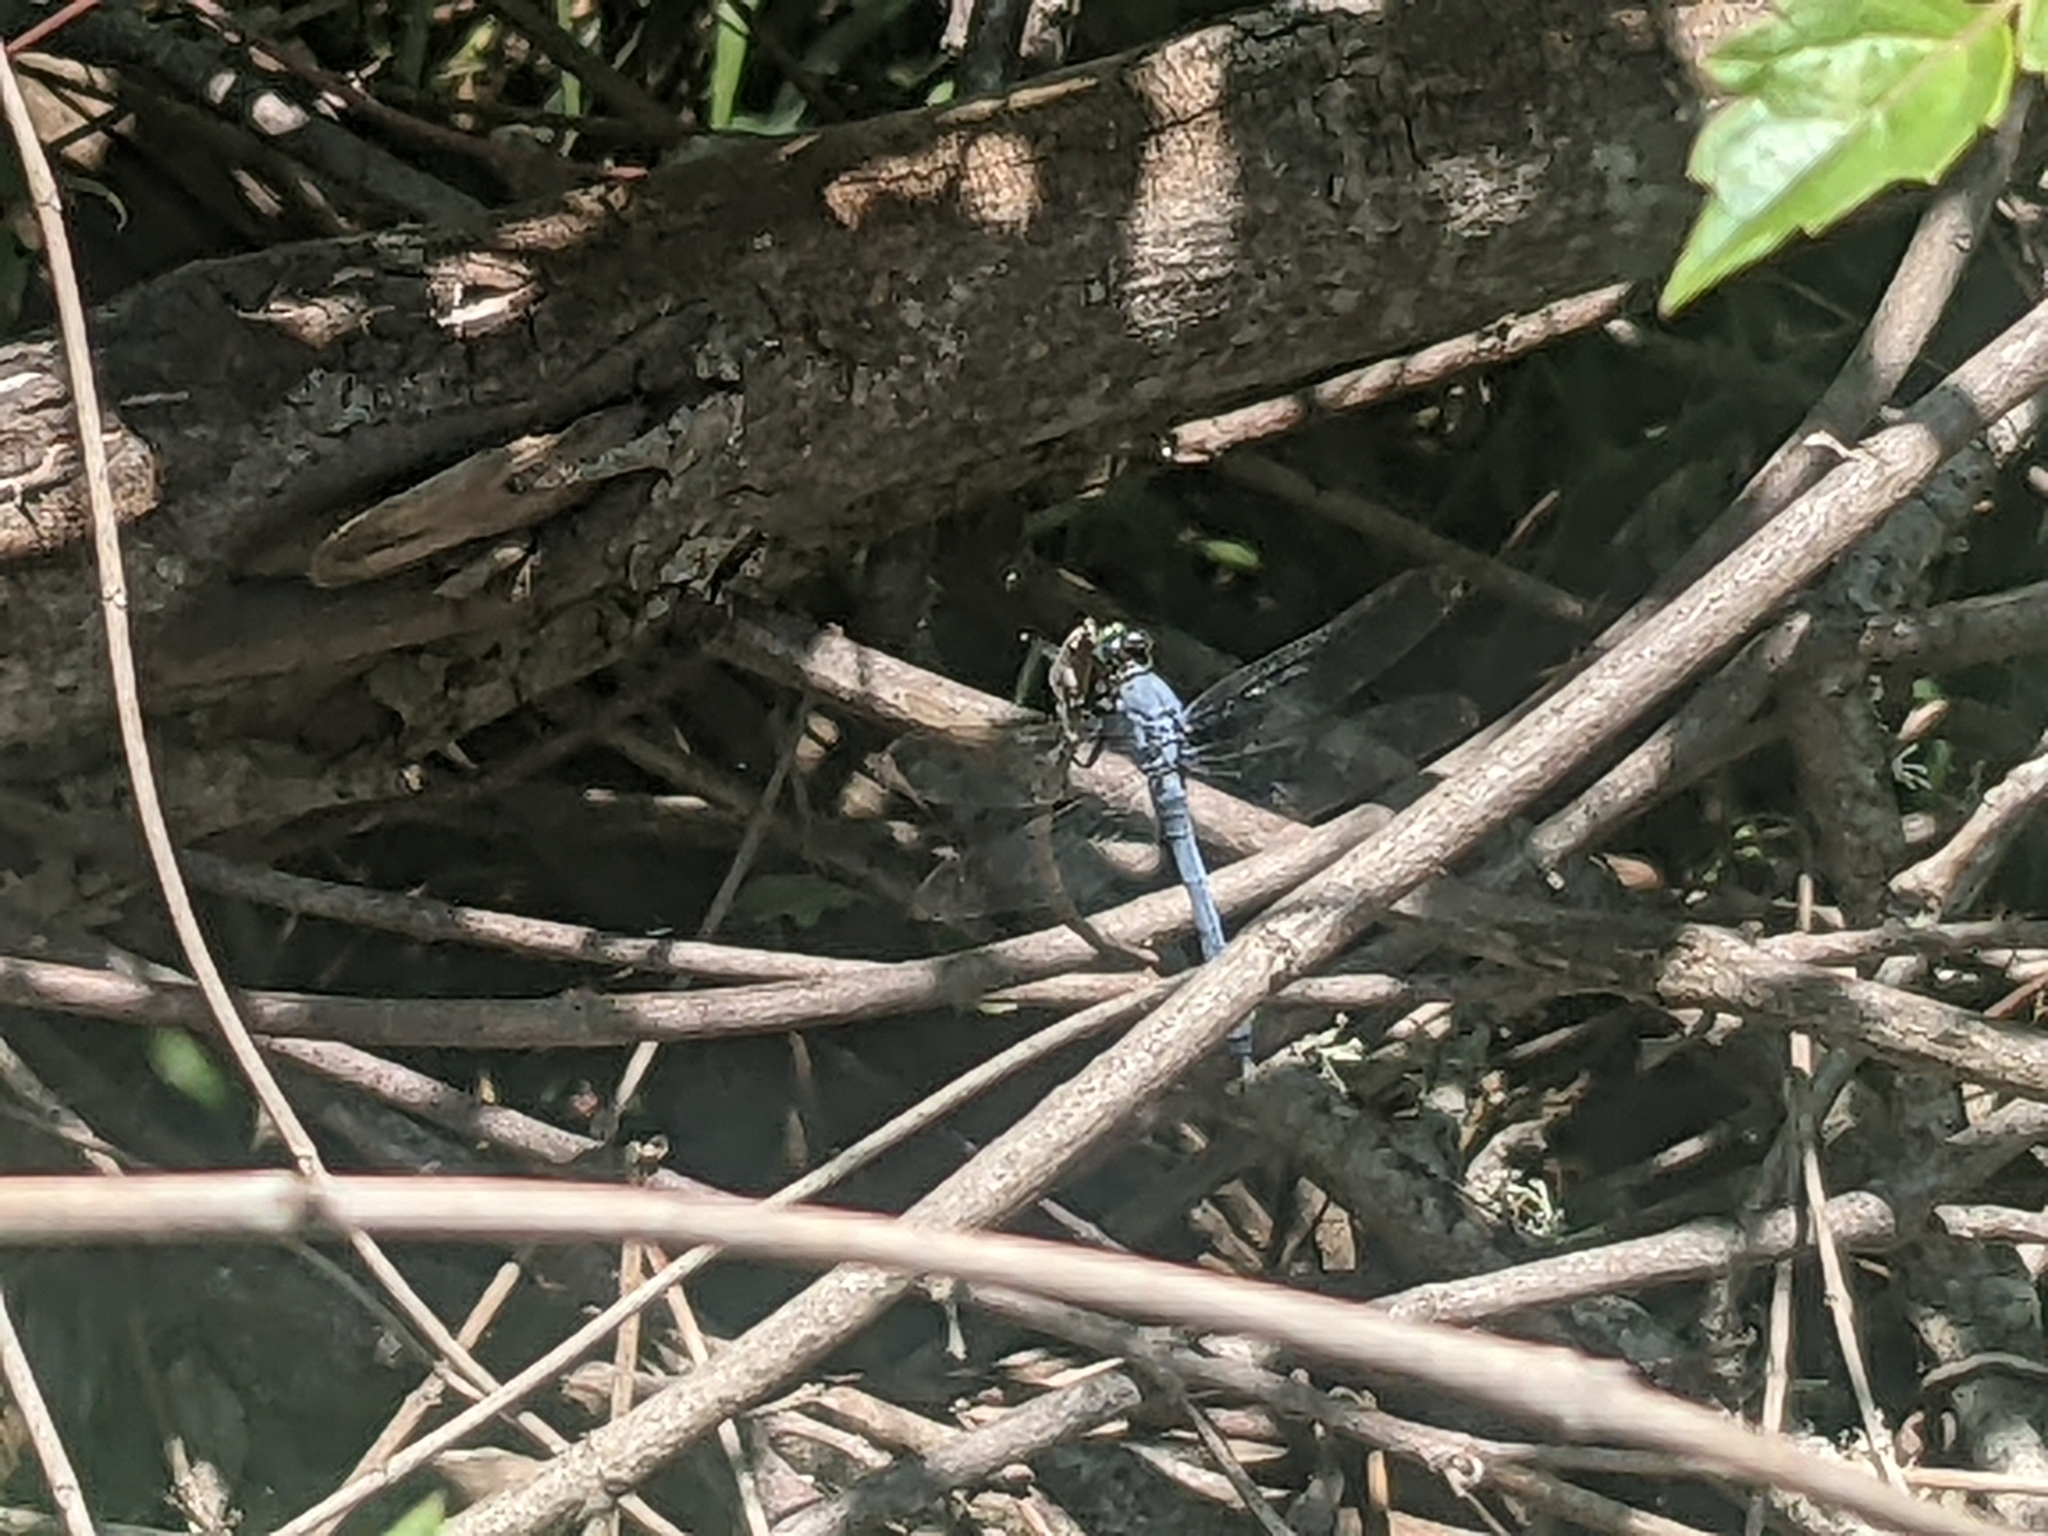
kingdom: Animalia
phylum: Arthropoda
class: Insecta
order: Odonata
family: Libellulidae
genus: Erythemis
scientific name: Erythemis simplicicollis
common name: Eastern pondhawk
